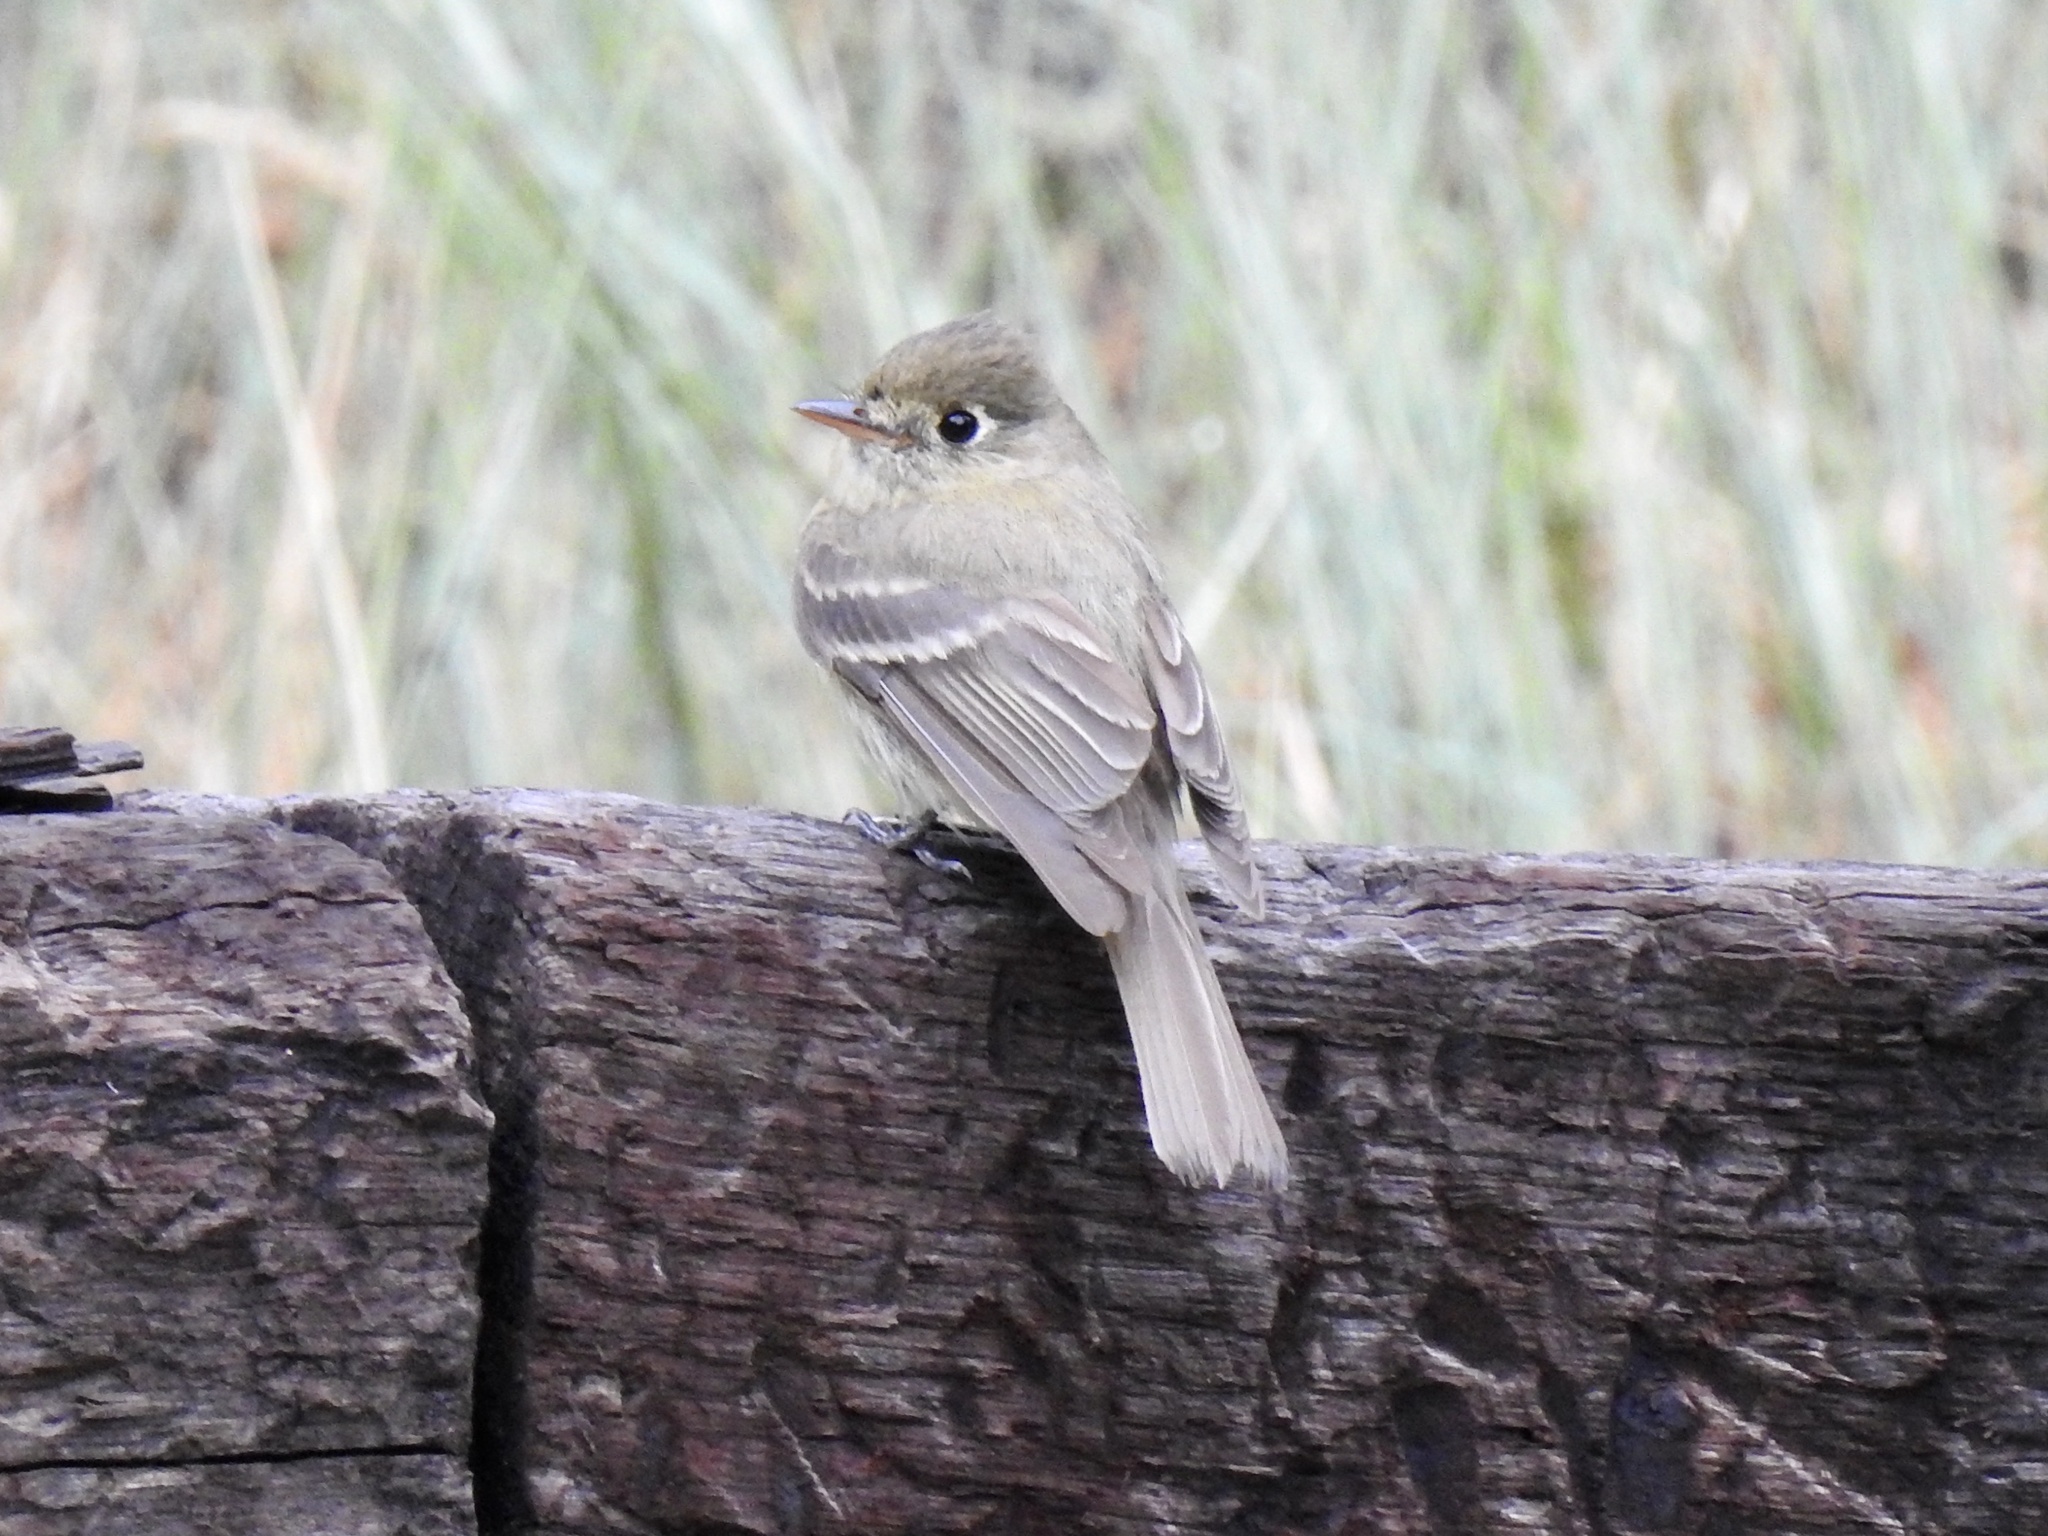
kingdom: Animalia
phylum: Chordata
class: Aves
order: Passeriformes
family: Tyrannidae
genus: Empidonax
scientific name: Empidonax difficilis
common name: Pacific-slope flycatcher
